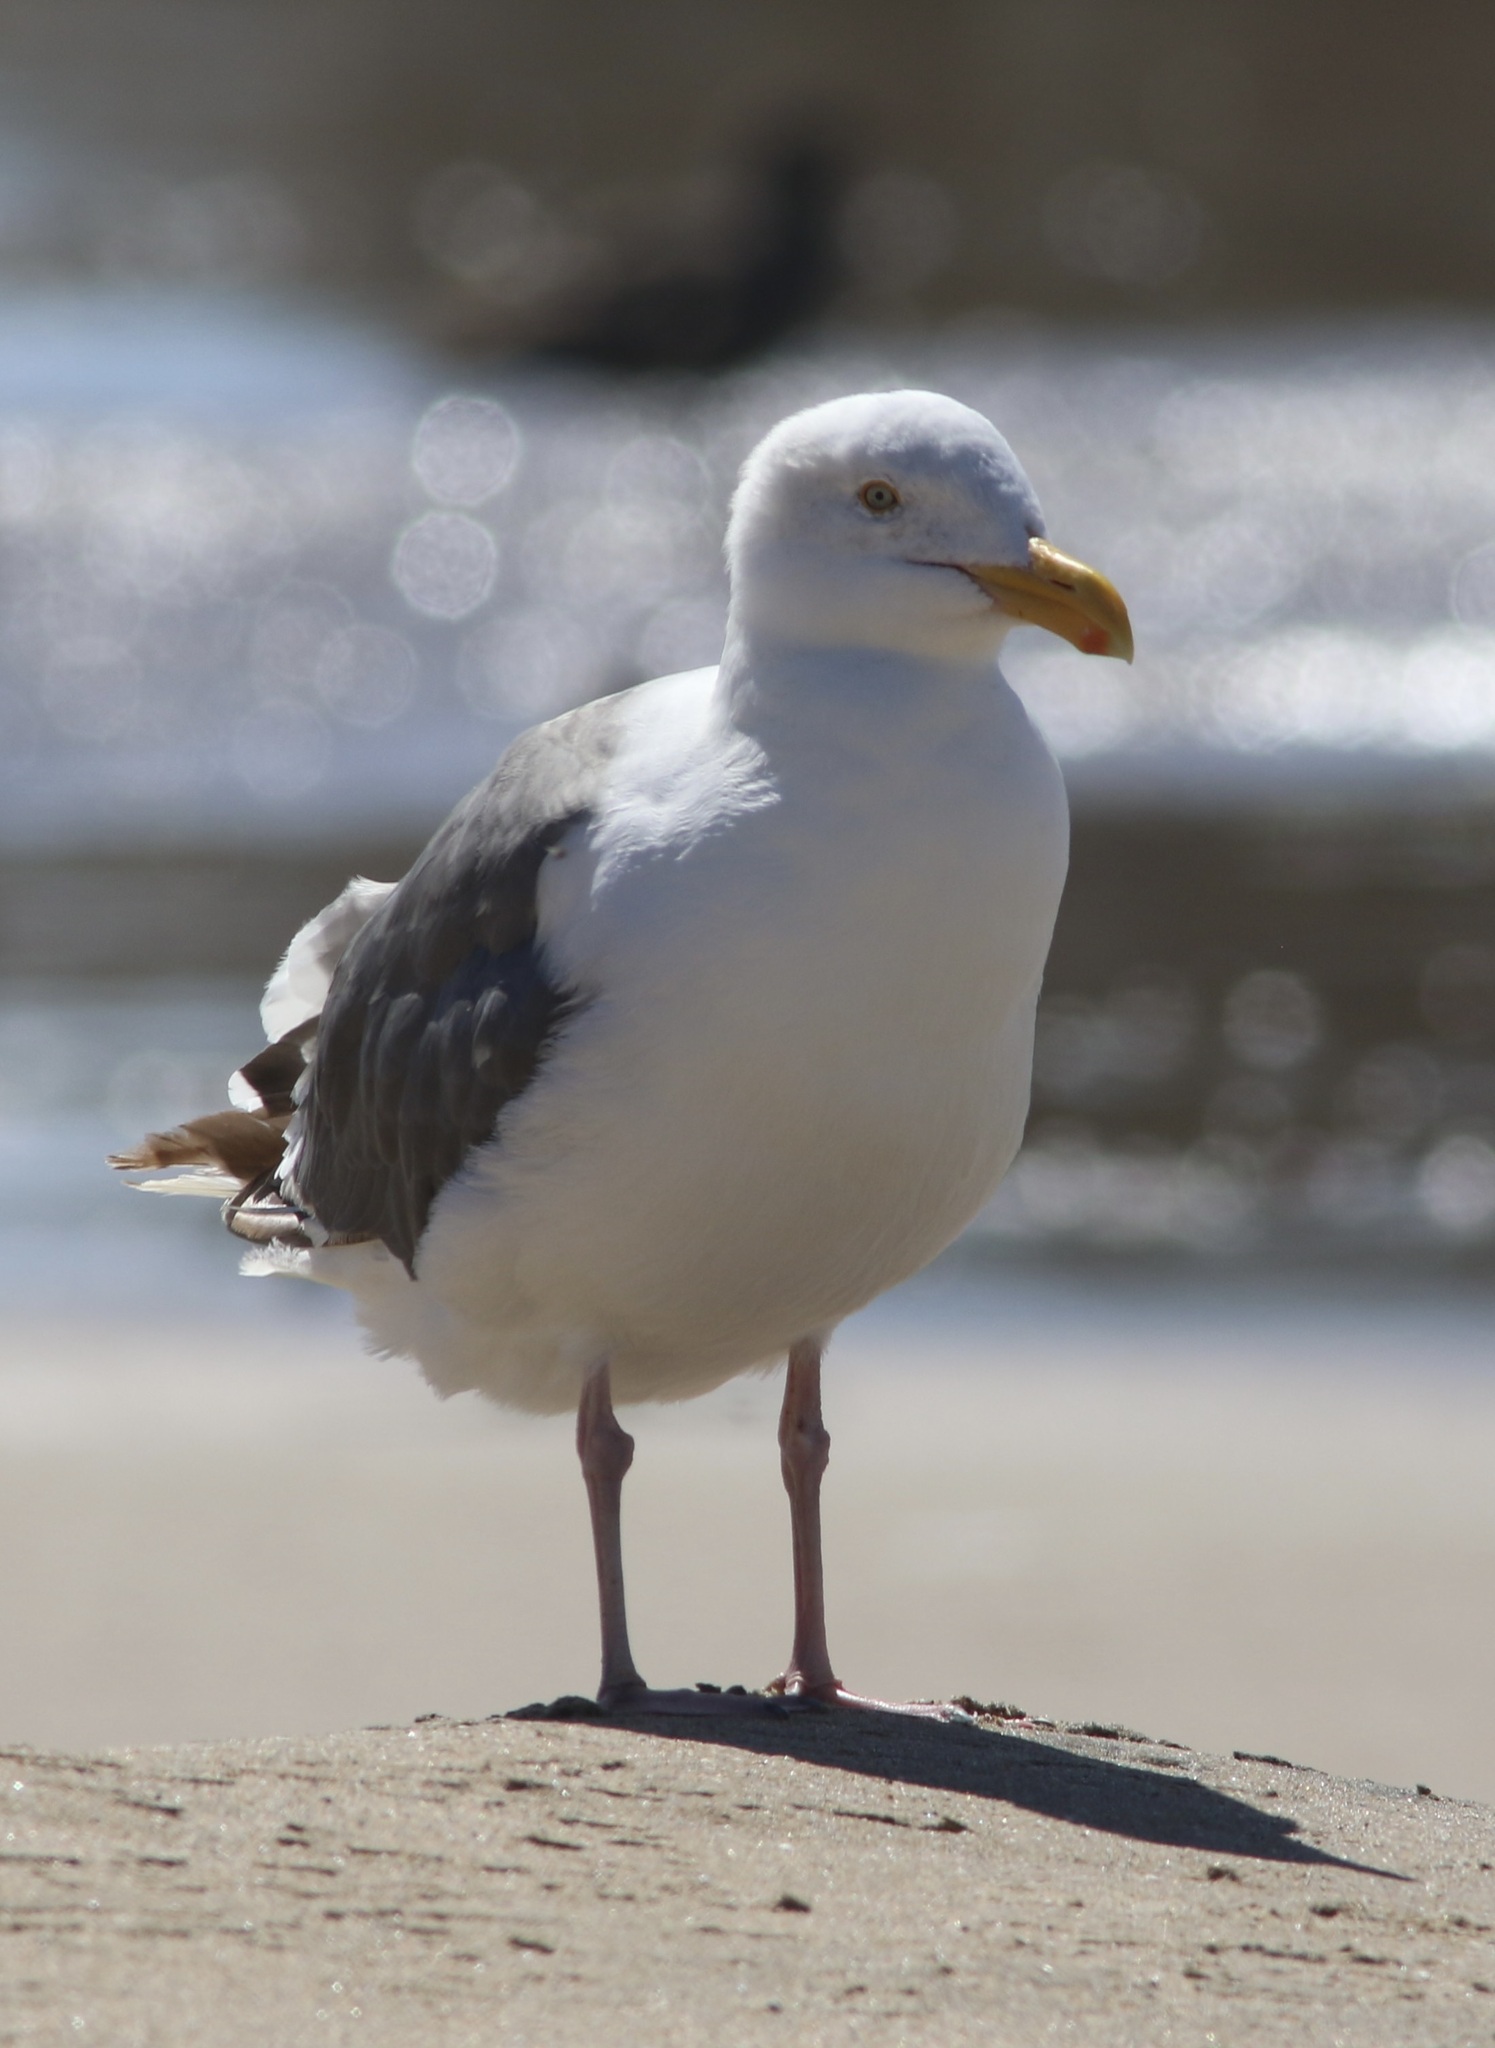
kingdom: Animalia
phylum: Chordata
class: Aves
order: Charadriiformes
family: Laridae
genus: Larus
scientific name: Larus occidentalis
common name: Western gull
